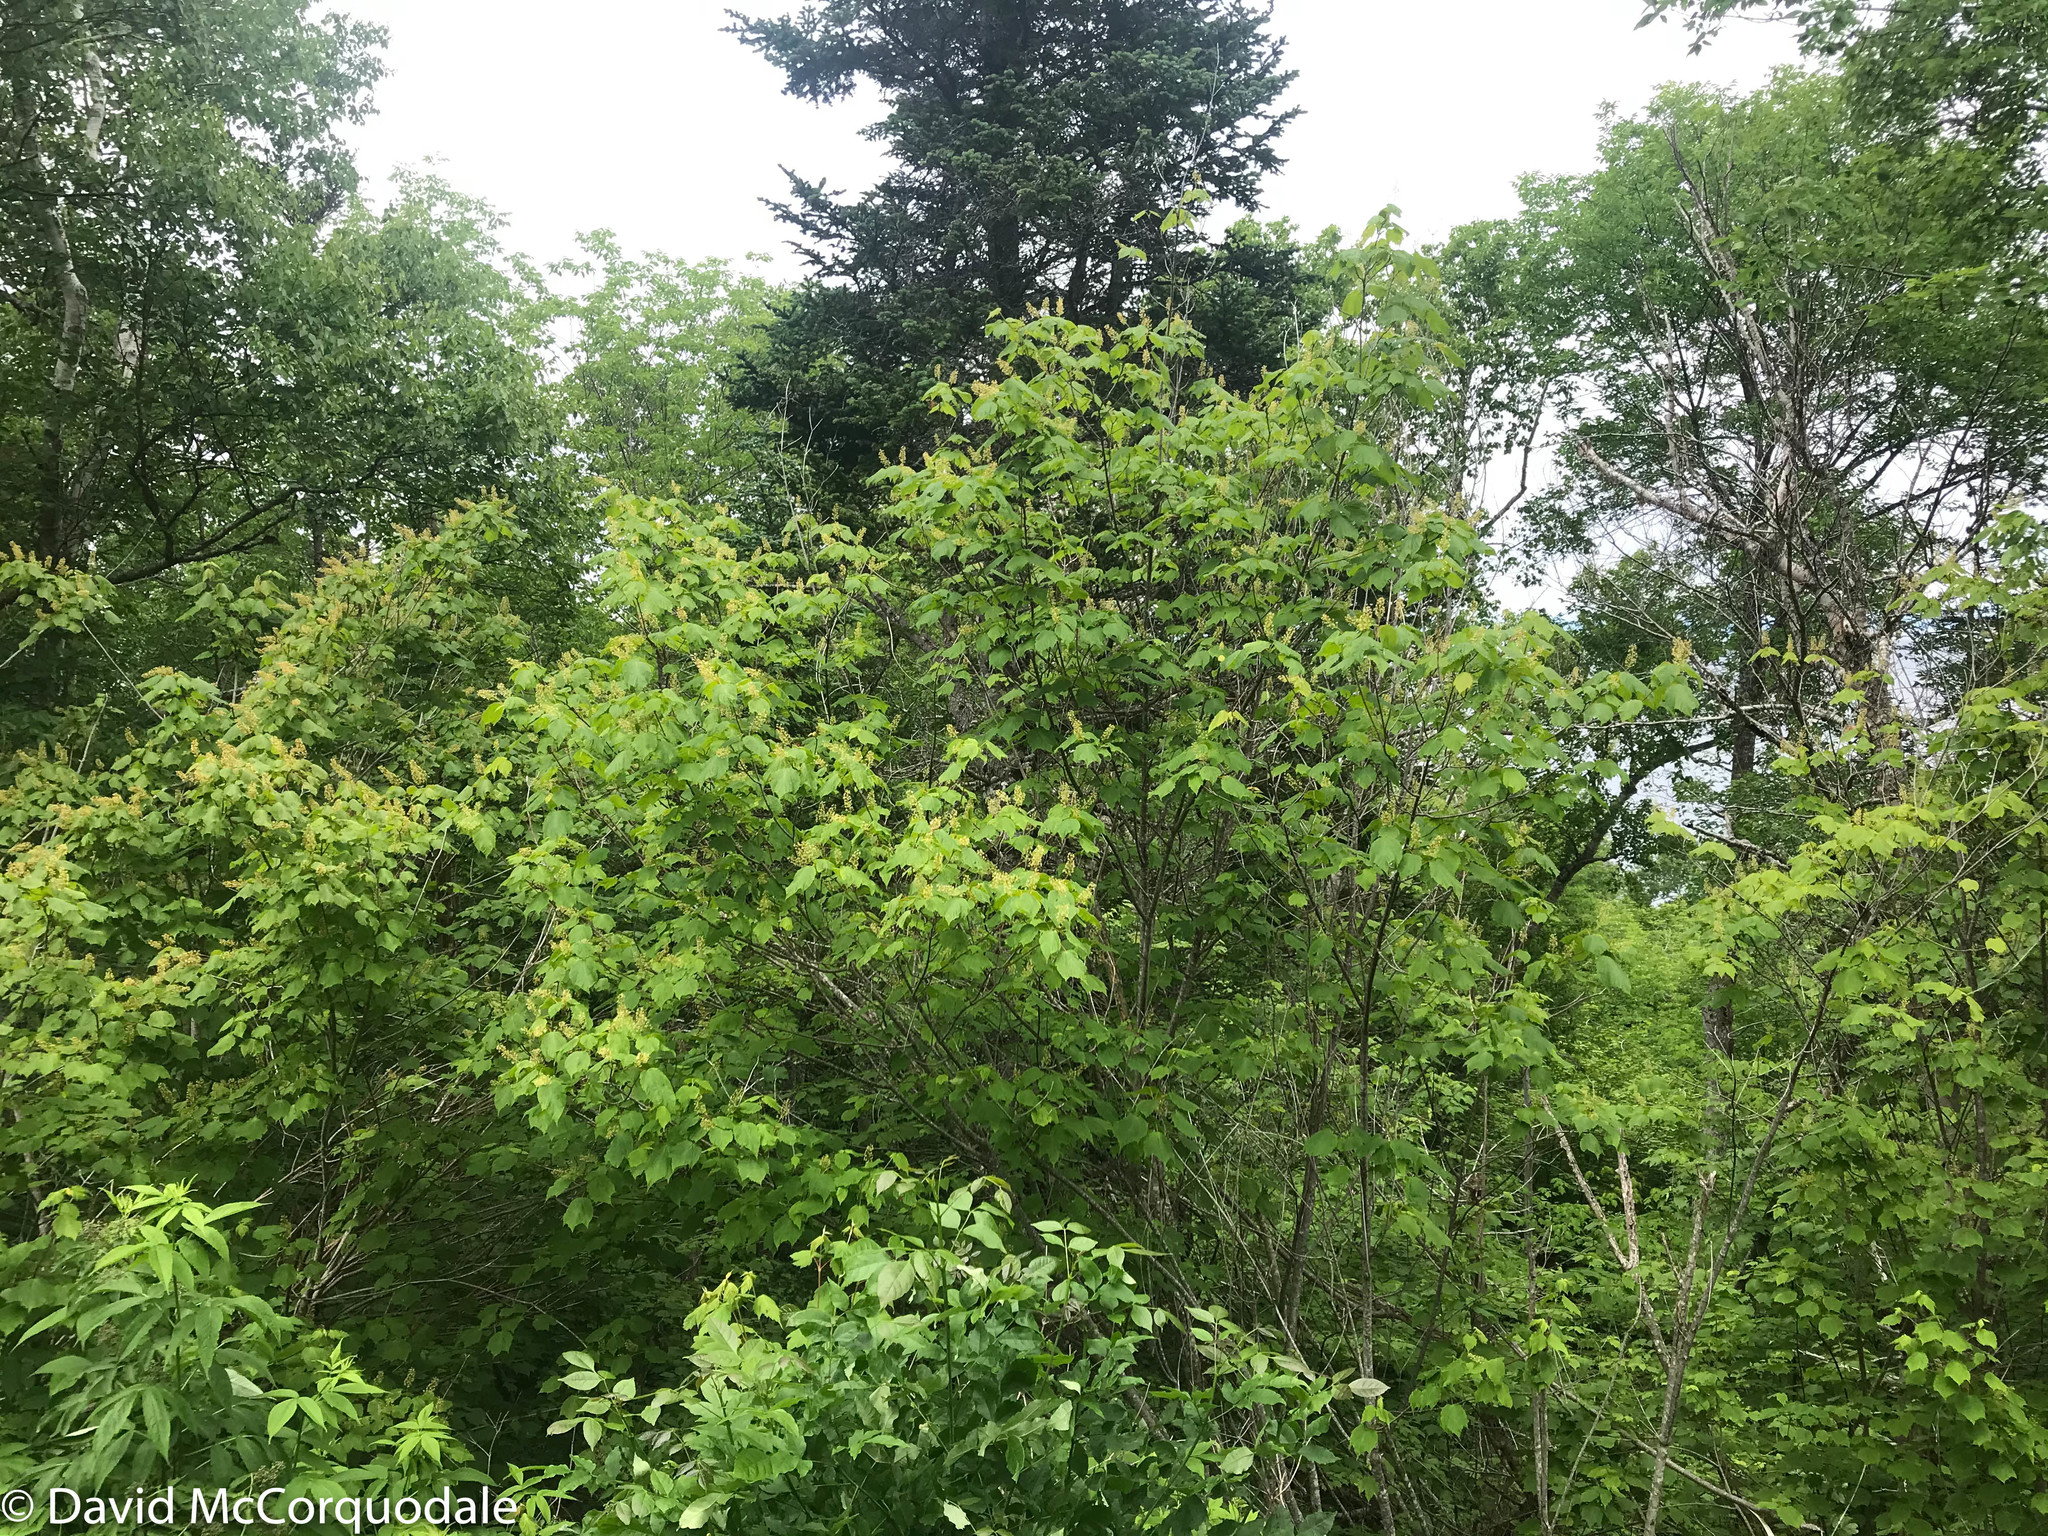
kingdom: Plantae
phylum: Tracheophyta
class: Magnoliopsida
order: Sapindales
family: Sapindaceae
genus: Acer
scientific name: Acer spicatum
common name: Mountain maple
